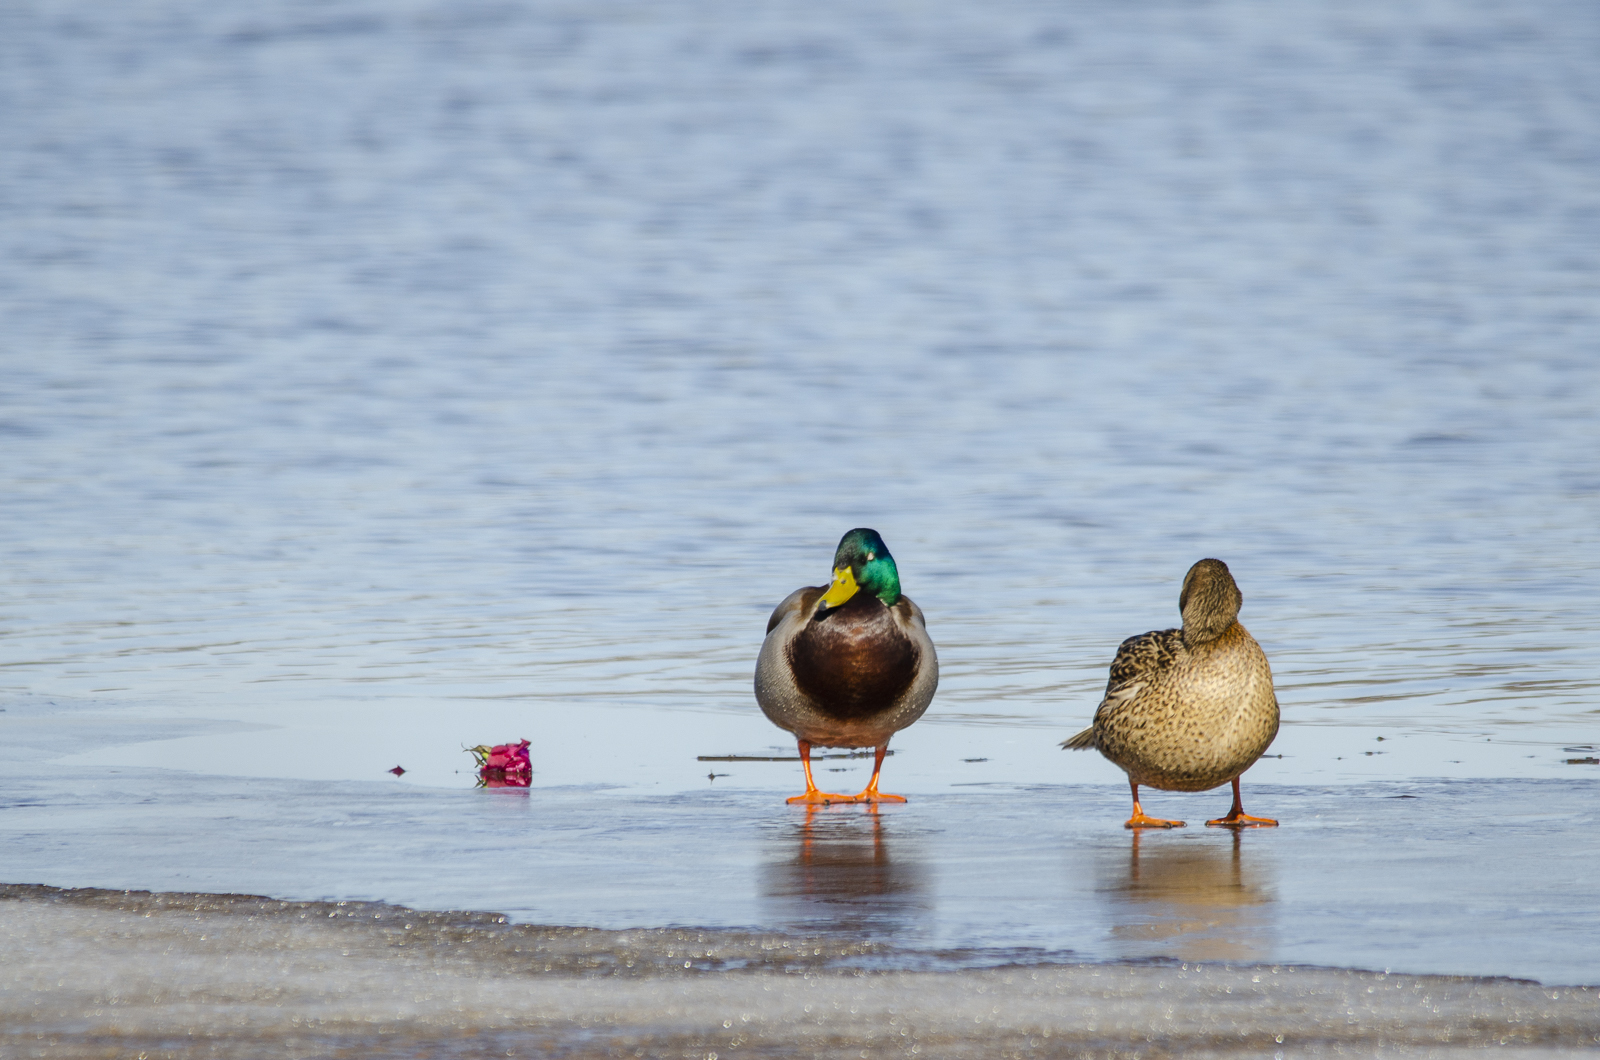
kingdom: Animalia
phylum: Chordata
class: Aves
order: Anseriformes
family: Anatidae
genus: Anas
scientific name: Anas platyrhynchos
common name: Mallard
